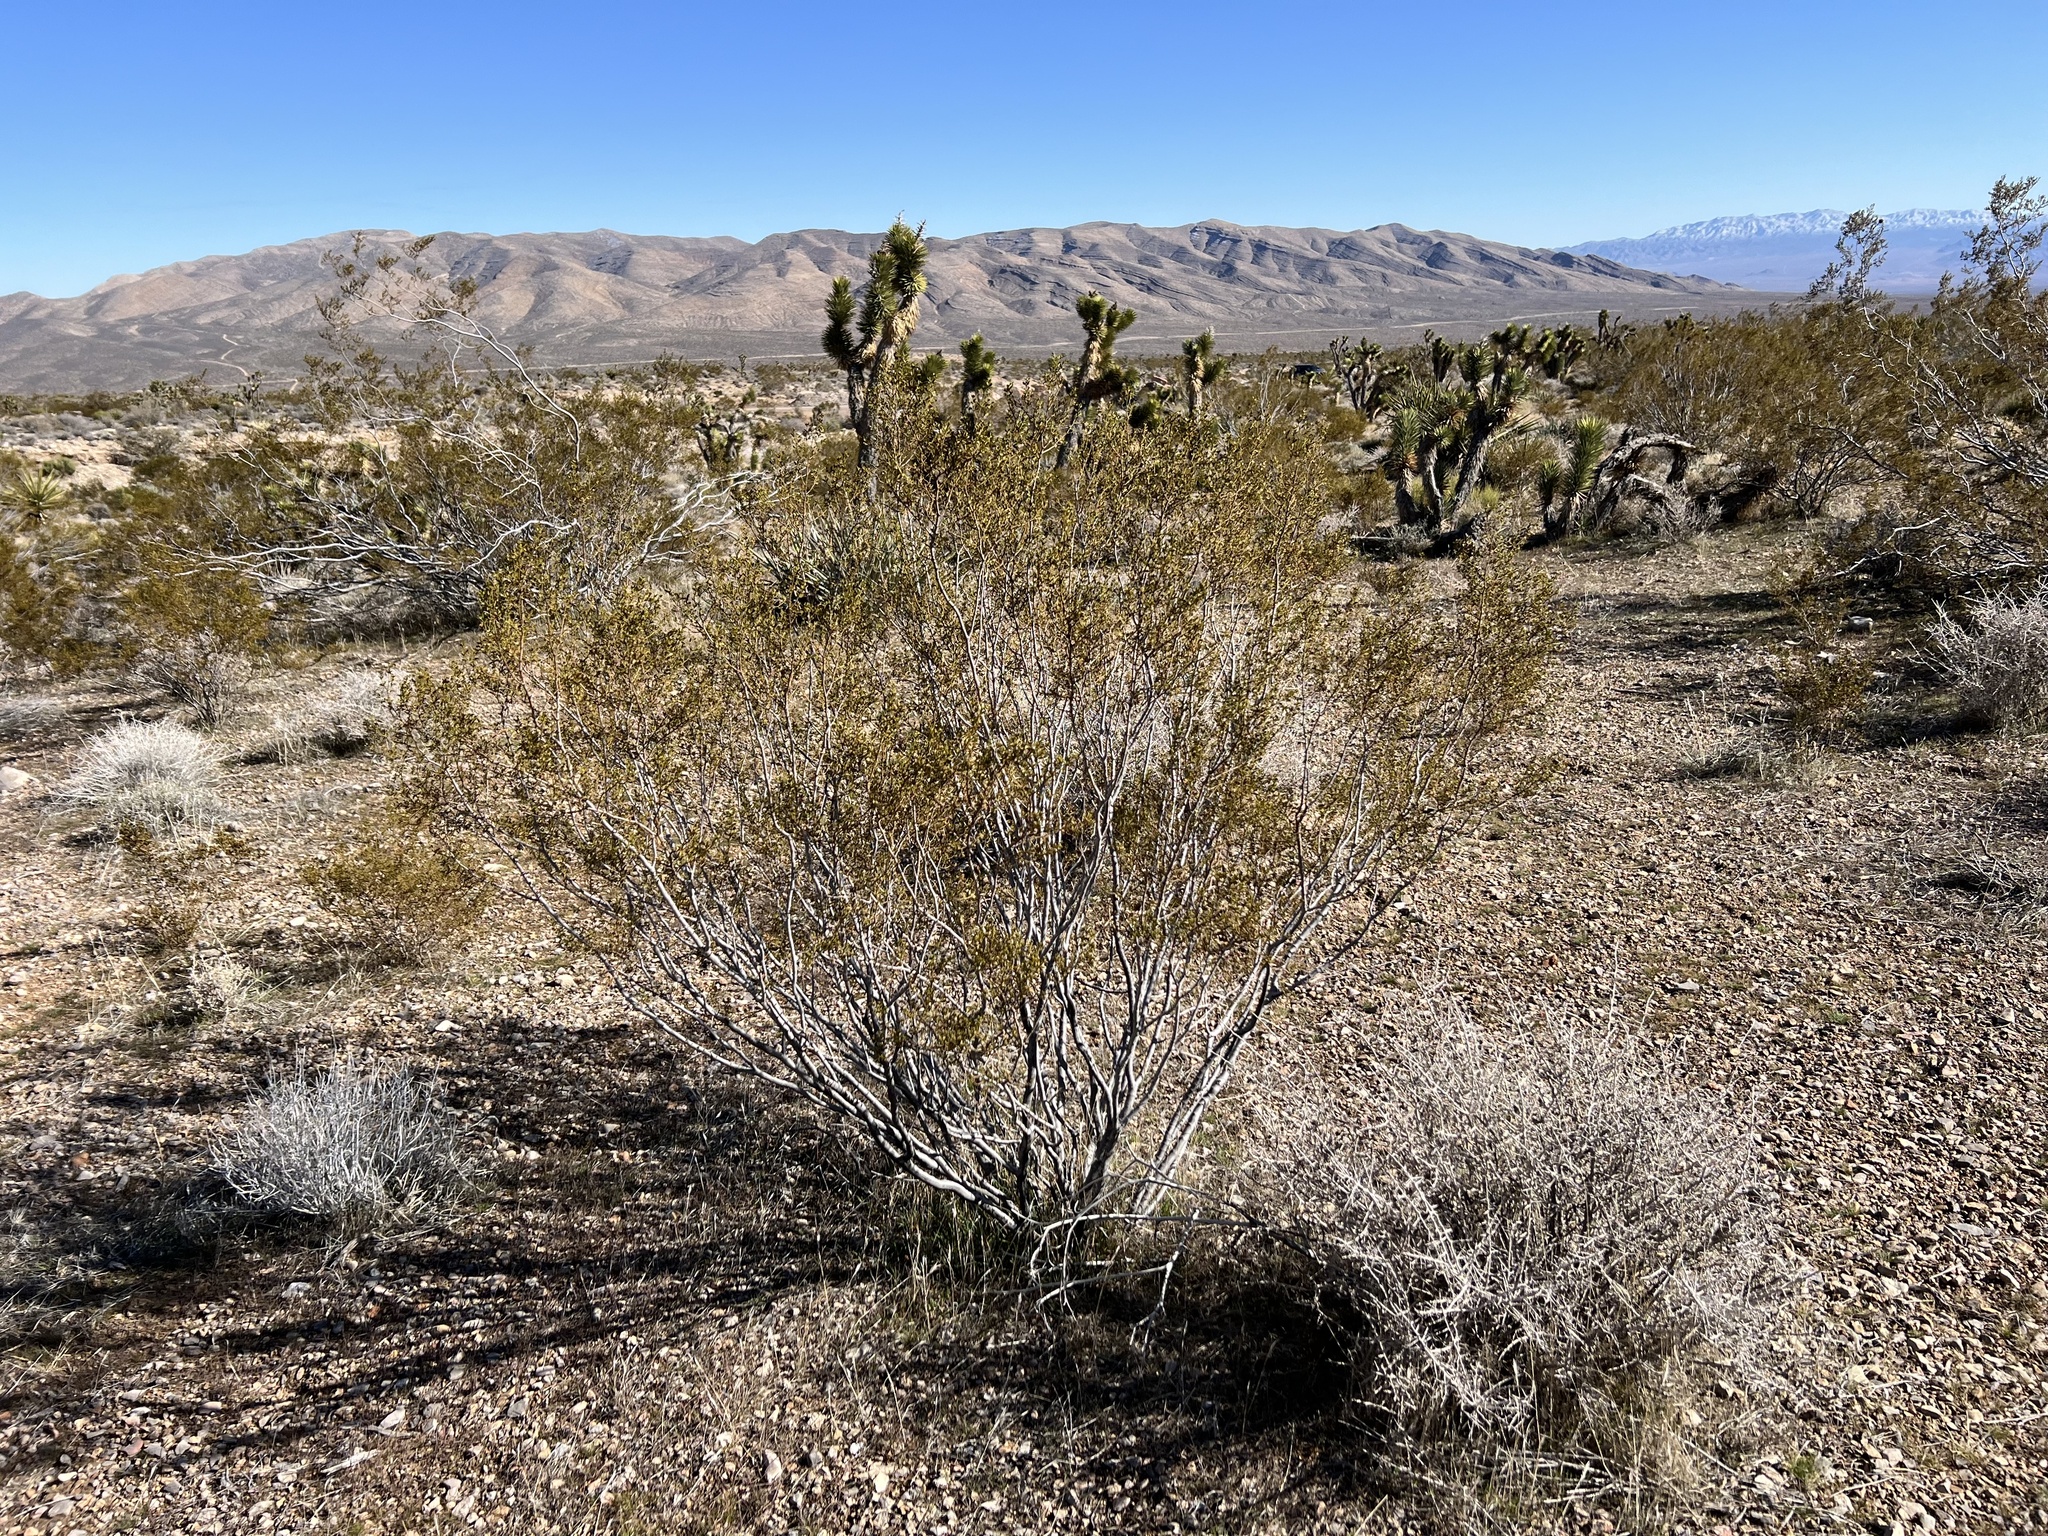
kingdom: Plantae
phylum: Tracheophyta
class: Magnoliopsida
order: Zygophyllales
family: Zygophyllaceae
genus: Larrea
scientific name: Larrea tridentata
